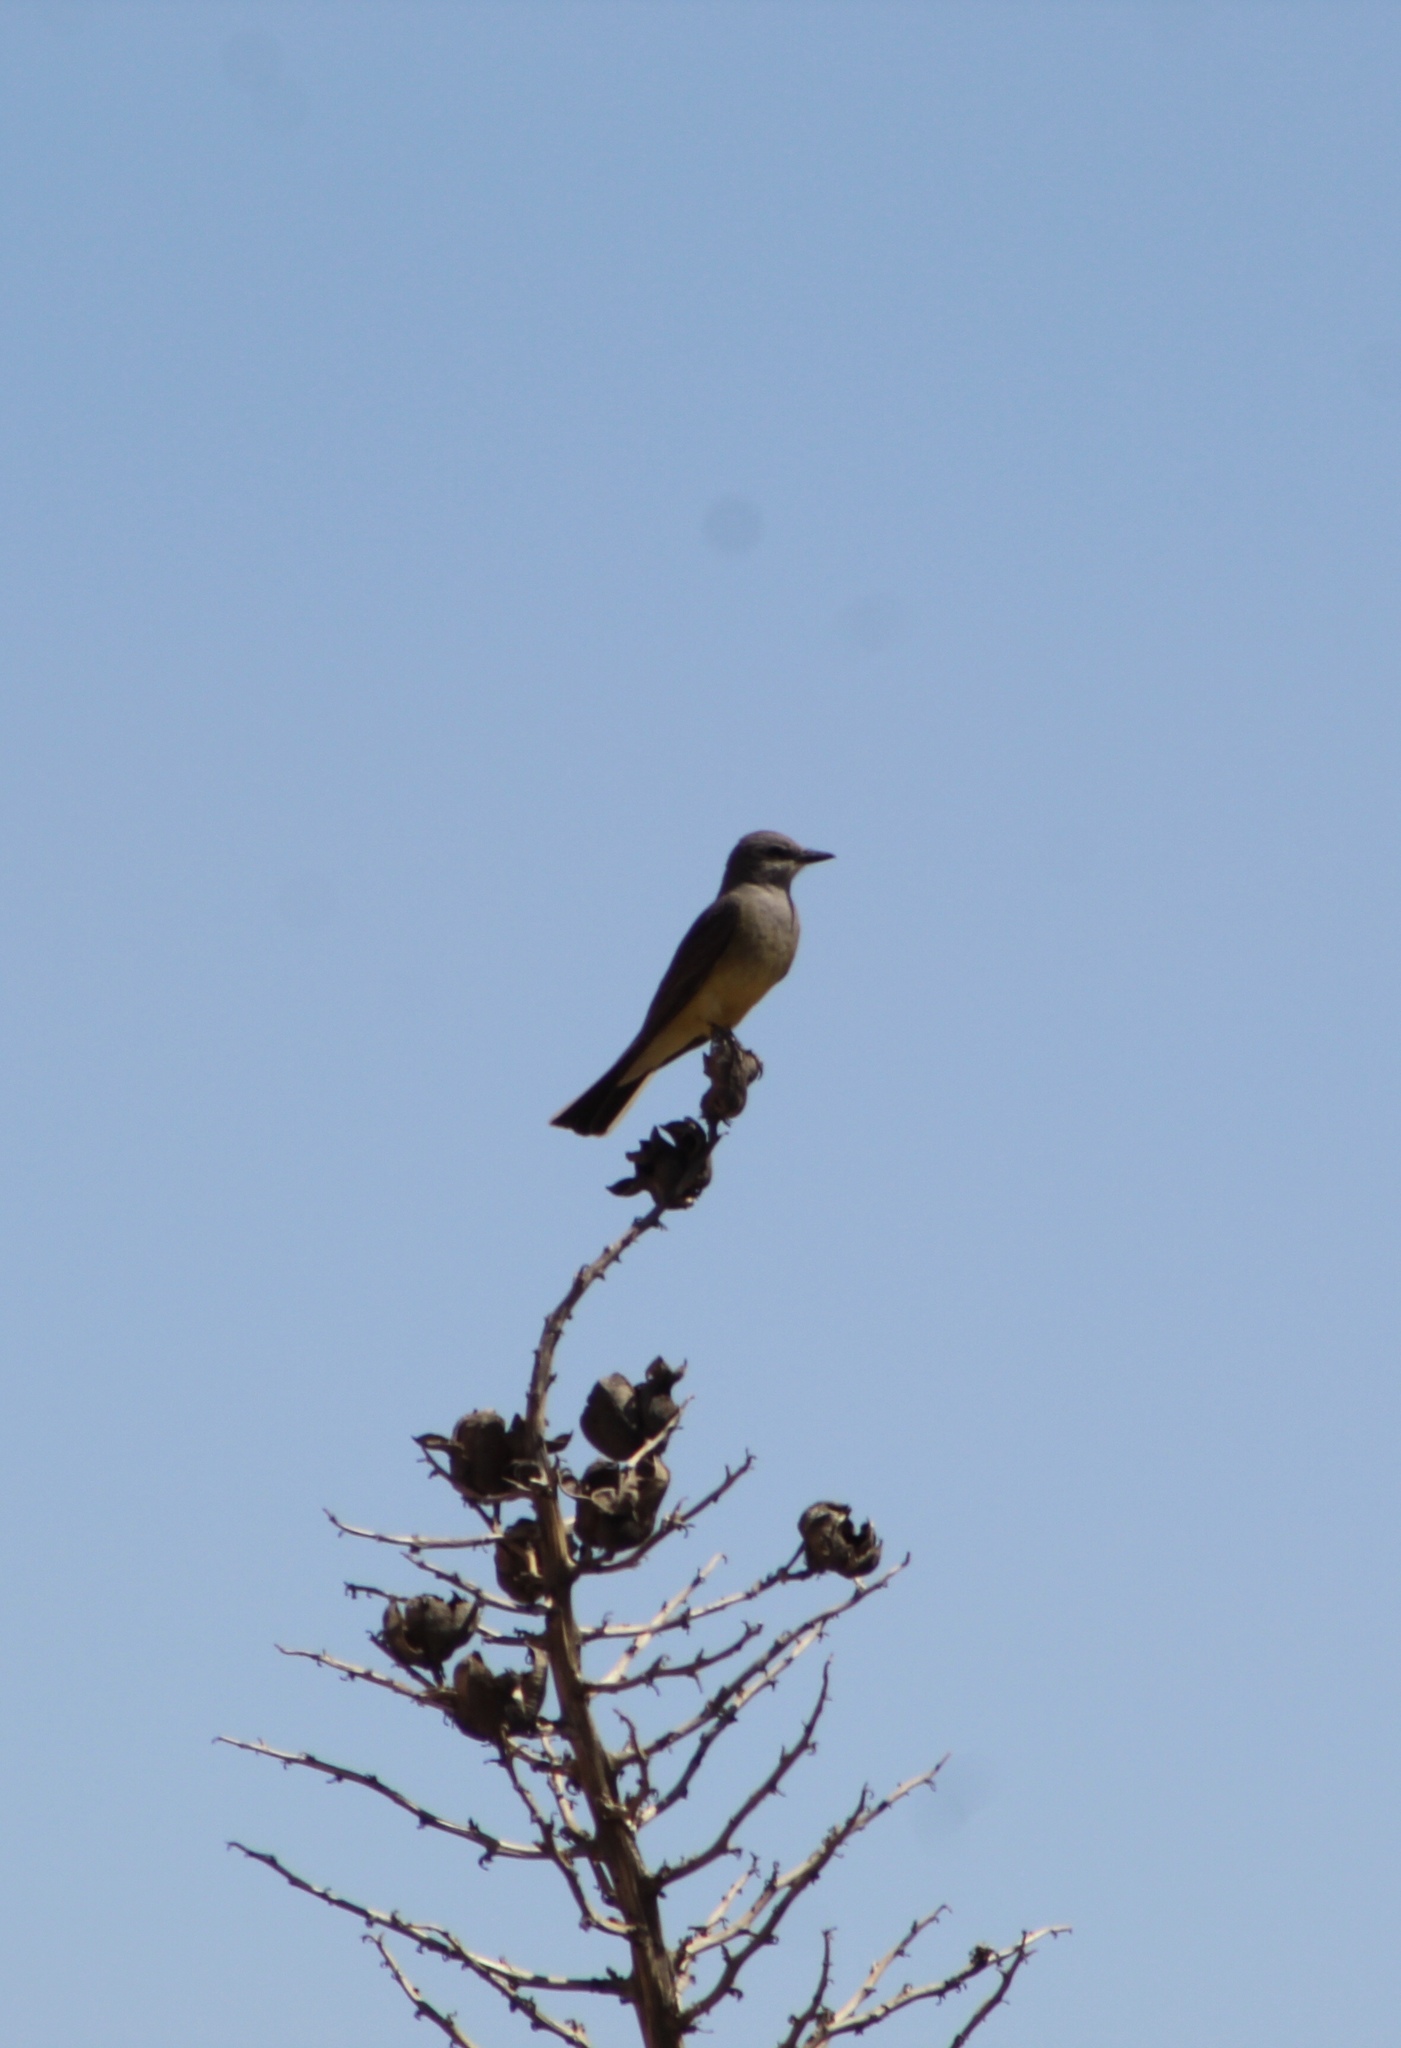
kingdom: Animalia
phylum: Chordata
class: Aves
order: Passeriformes
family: Tyrannidae
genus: Tyrannus
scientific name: Tyrannus verticalis
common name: Western kingbird
